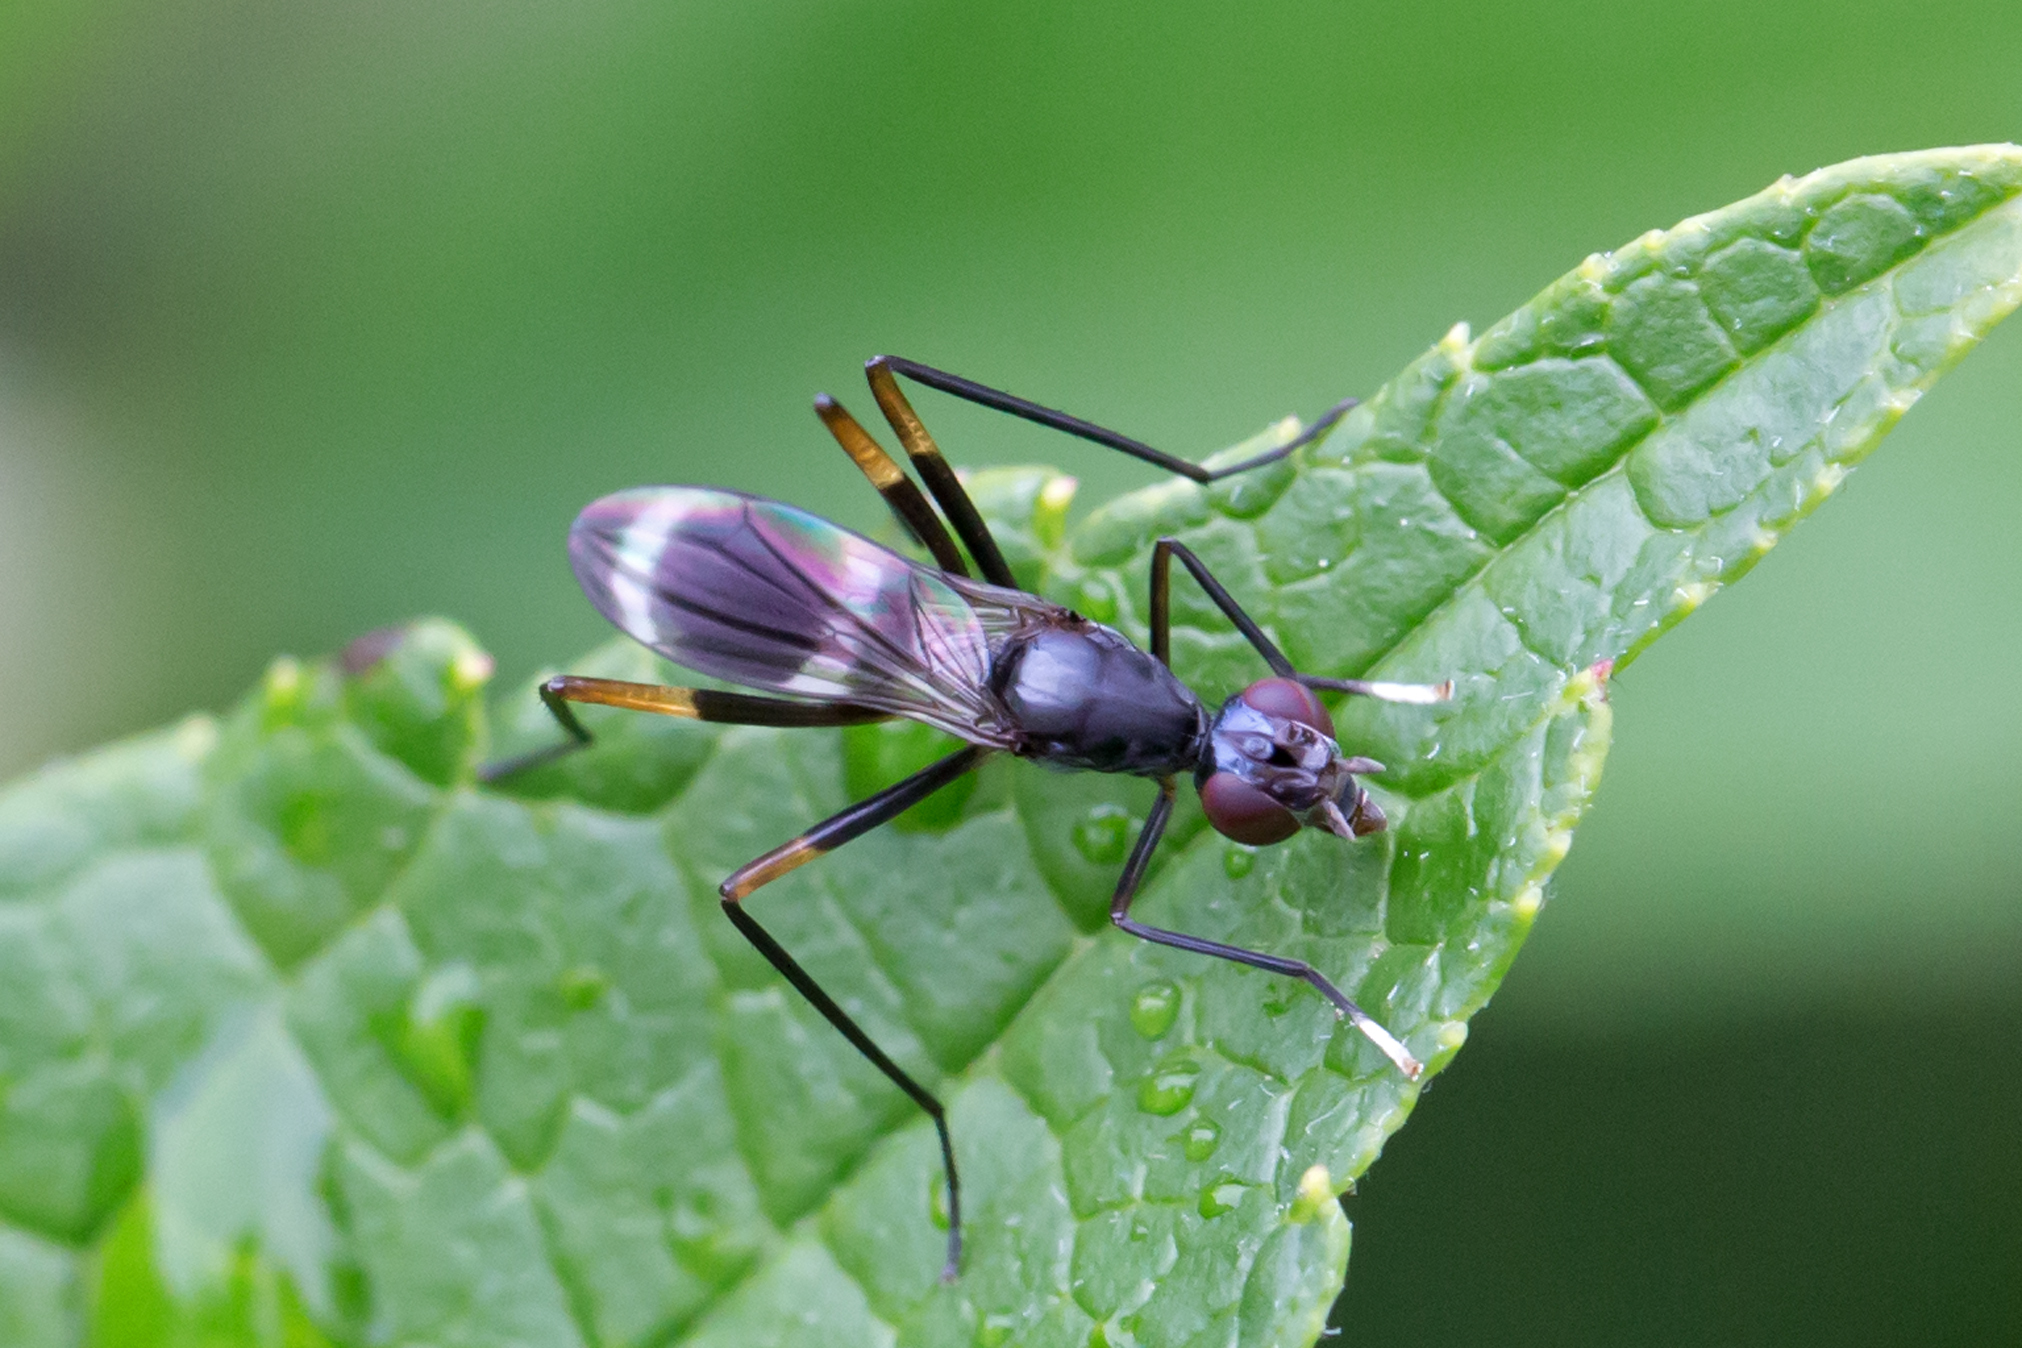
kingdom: Animalia
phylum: Arthropoda
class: Insecta
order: Diptera
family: Micropezidae
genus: Taeniaptera
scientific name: Taeniaptera trivittata
